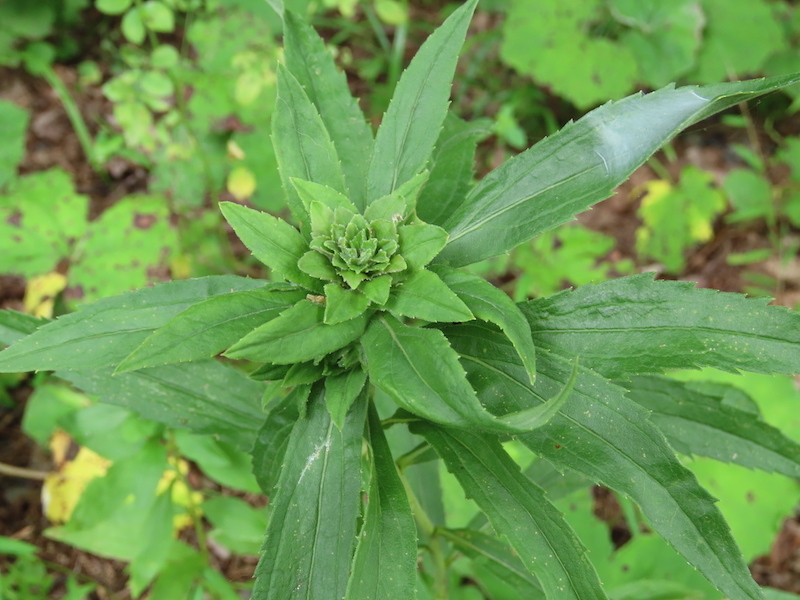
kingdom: Animalia
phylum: Arthropoda
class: Insecta
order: Diptera
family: Tephritidae
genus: Procecidochares
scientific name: Procecidochares atra
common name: Goldenrod brussels sprout gall fly
